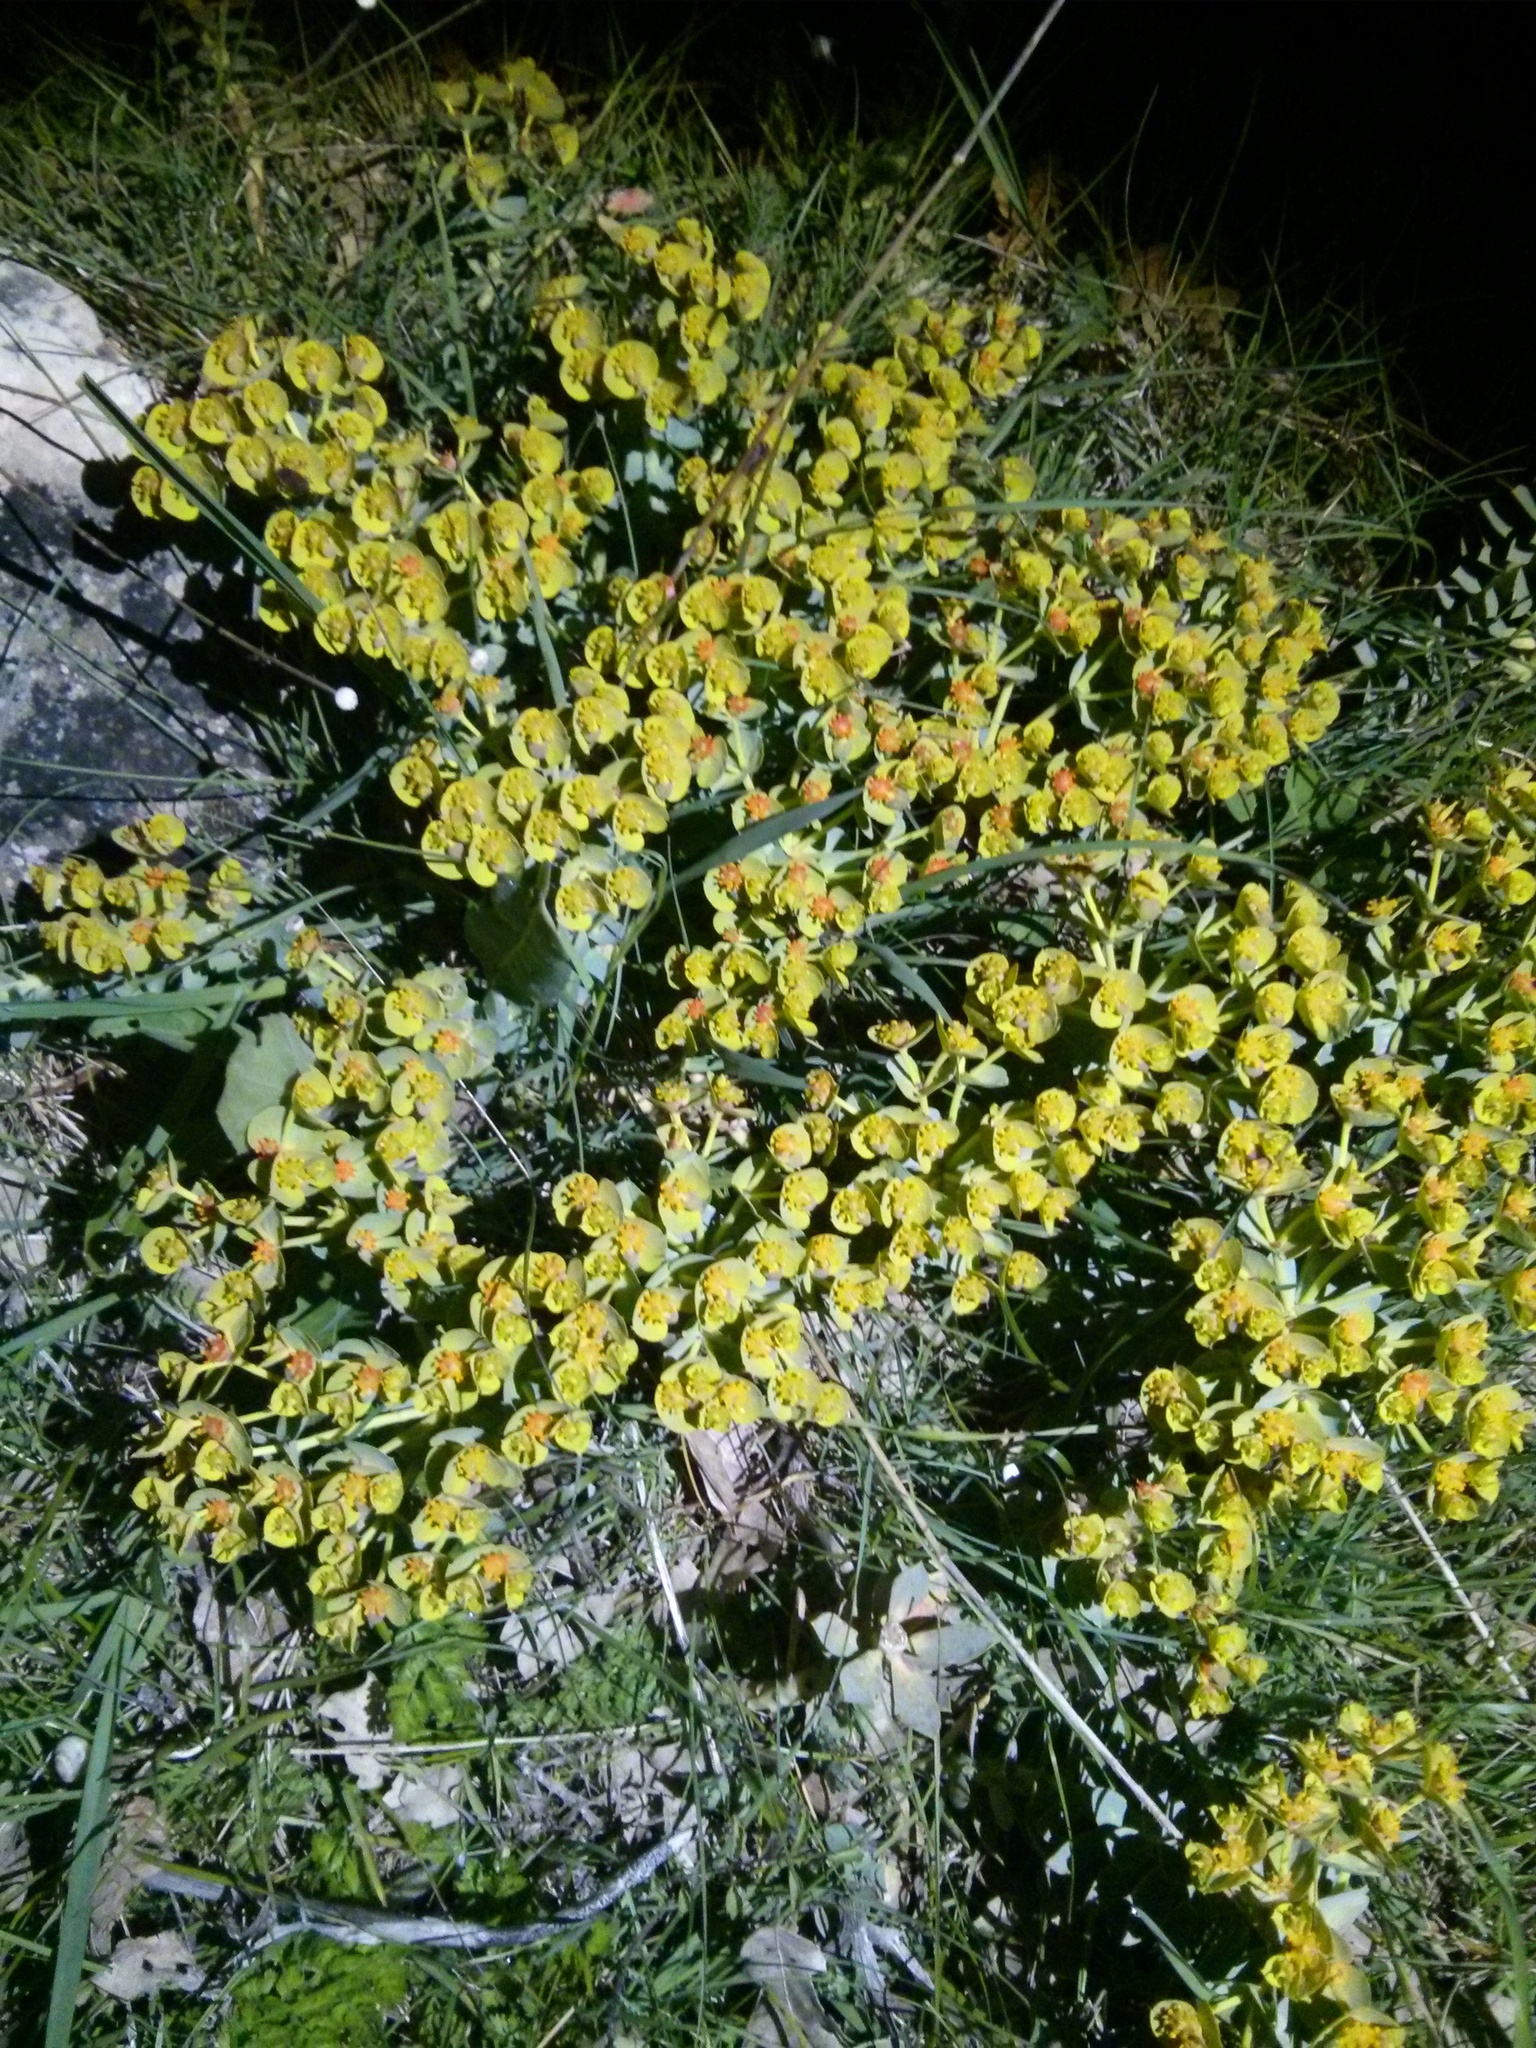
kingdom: Plantae
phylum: Tracheophyta
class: Magnoliopsida
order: Malpighiales
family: Euphorbiaceae
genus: Euphorbia
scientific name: Euphorbia myrsinites
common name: Myrtle spurge
